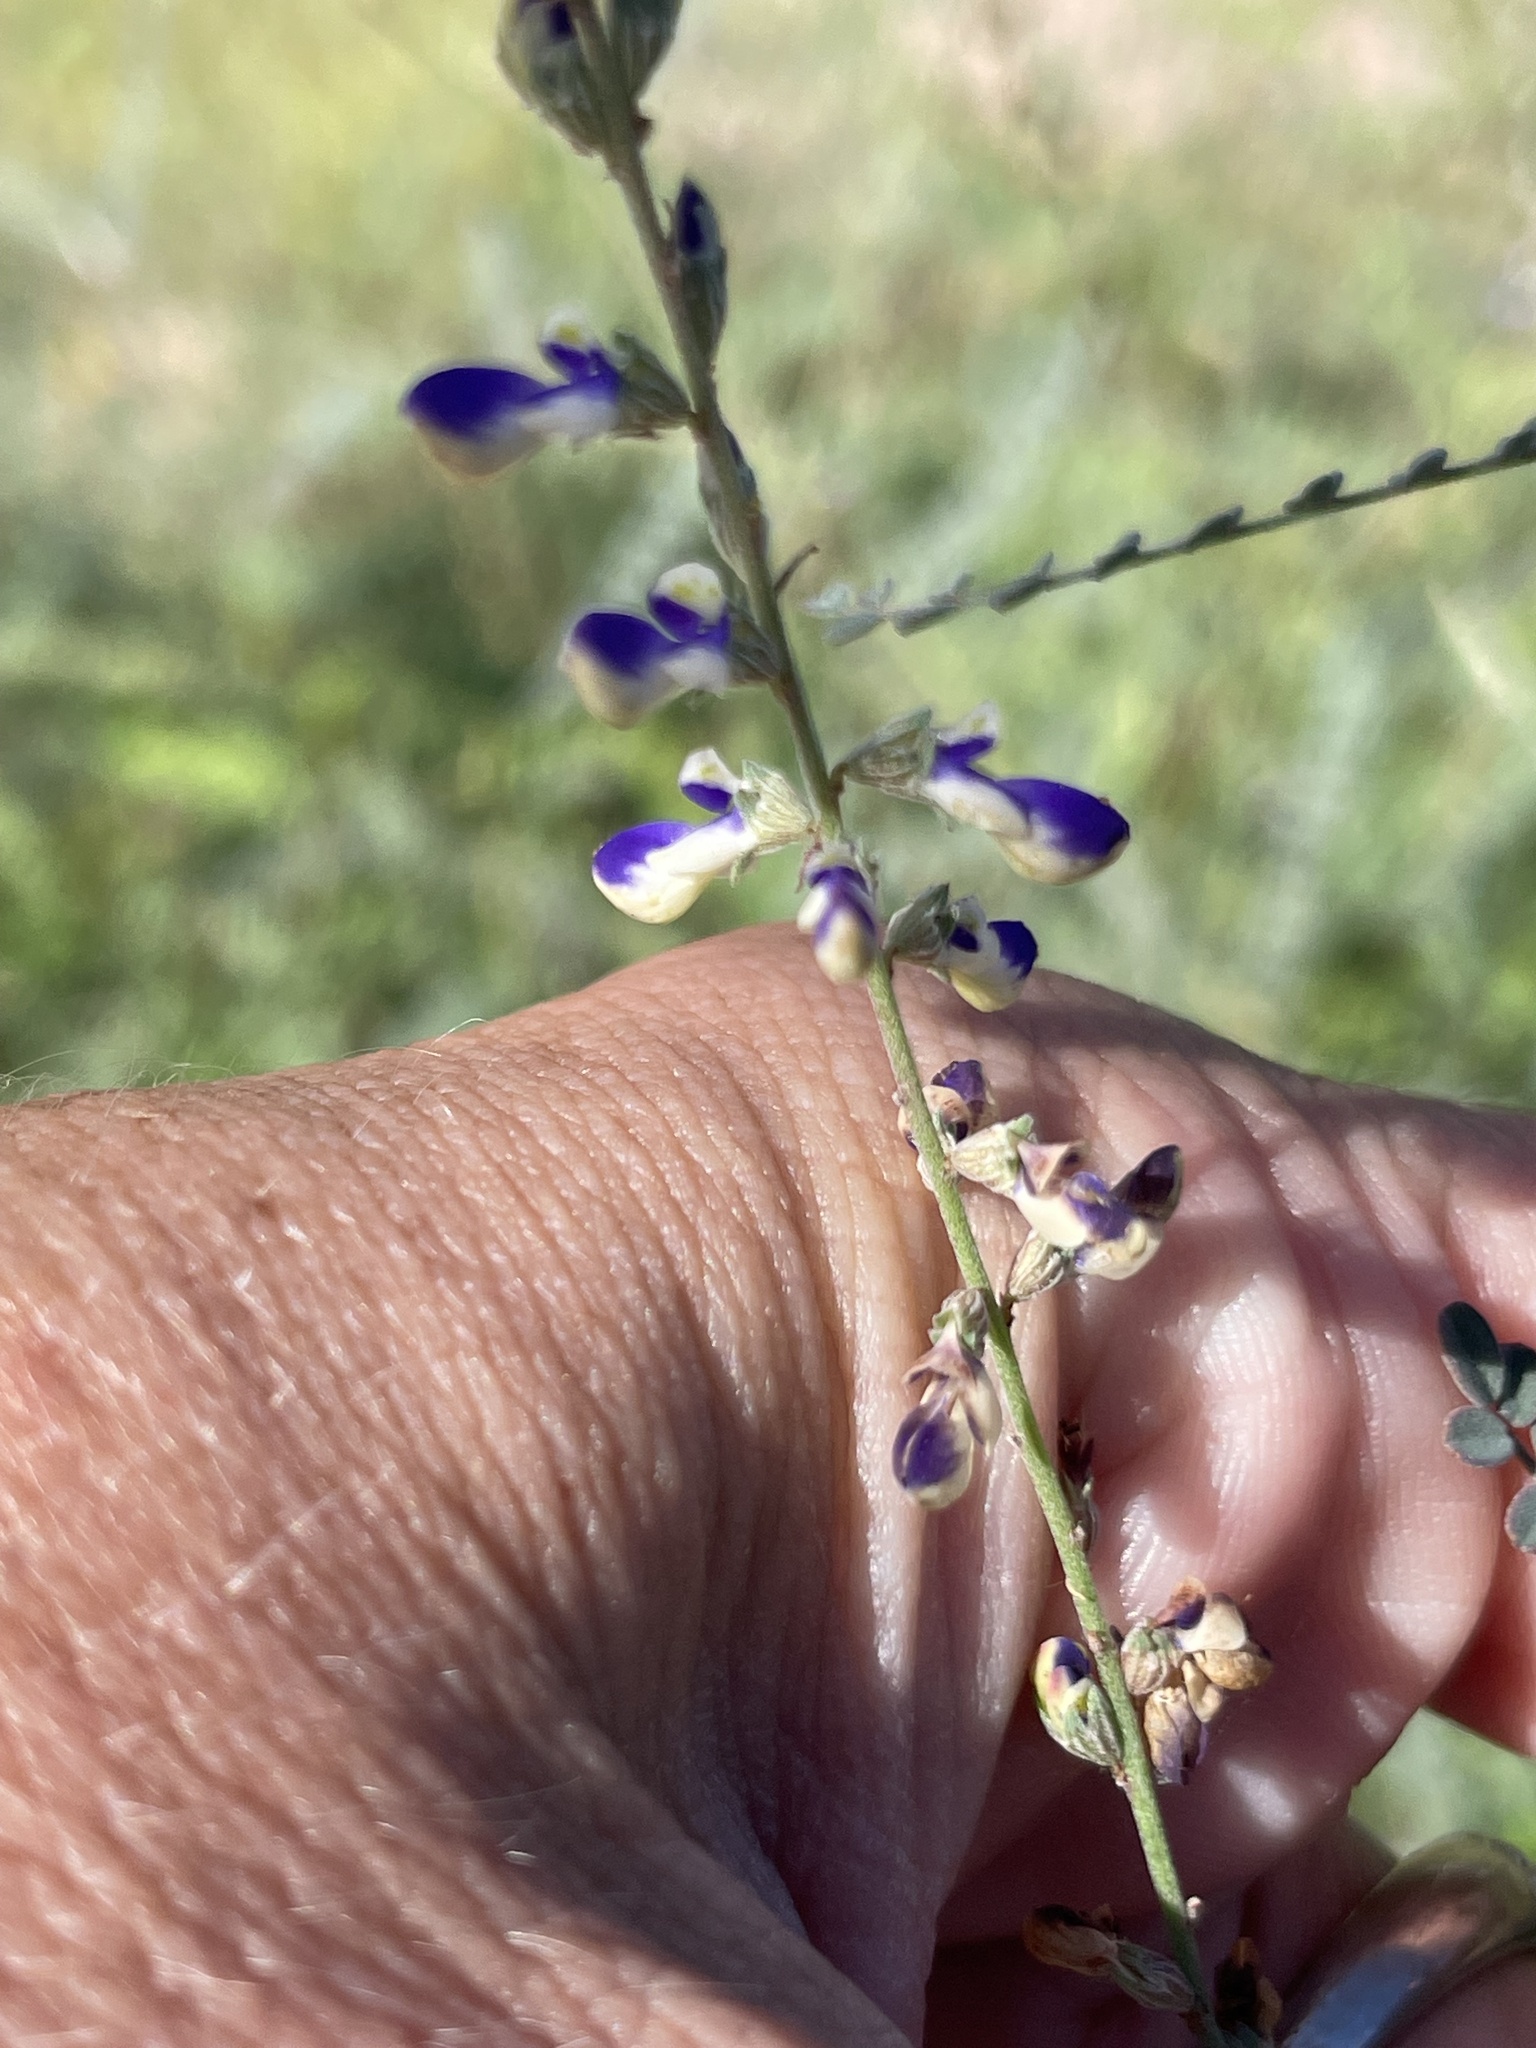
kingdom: Plantae
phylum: Tracheophyta
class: Magnoliopsida
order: Fabales
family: Fabaceae
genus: Marina
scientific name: Marina parryi
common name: Parry's marina
